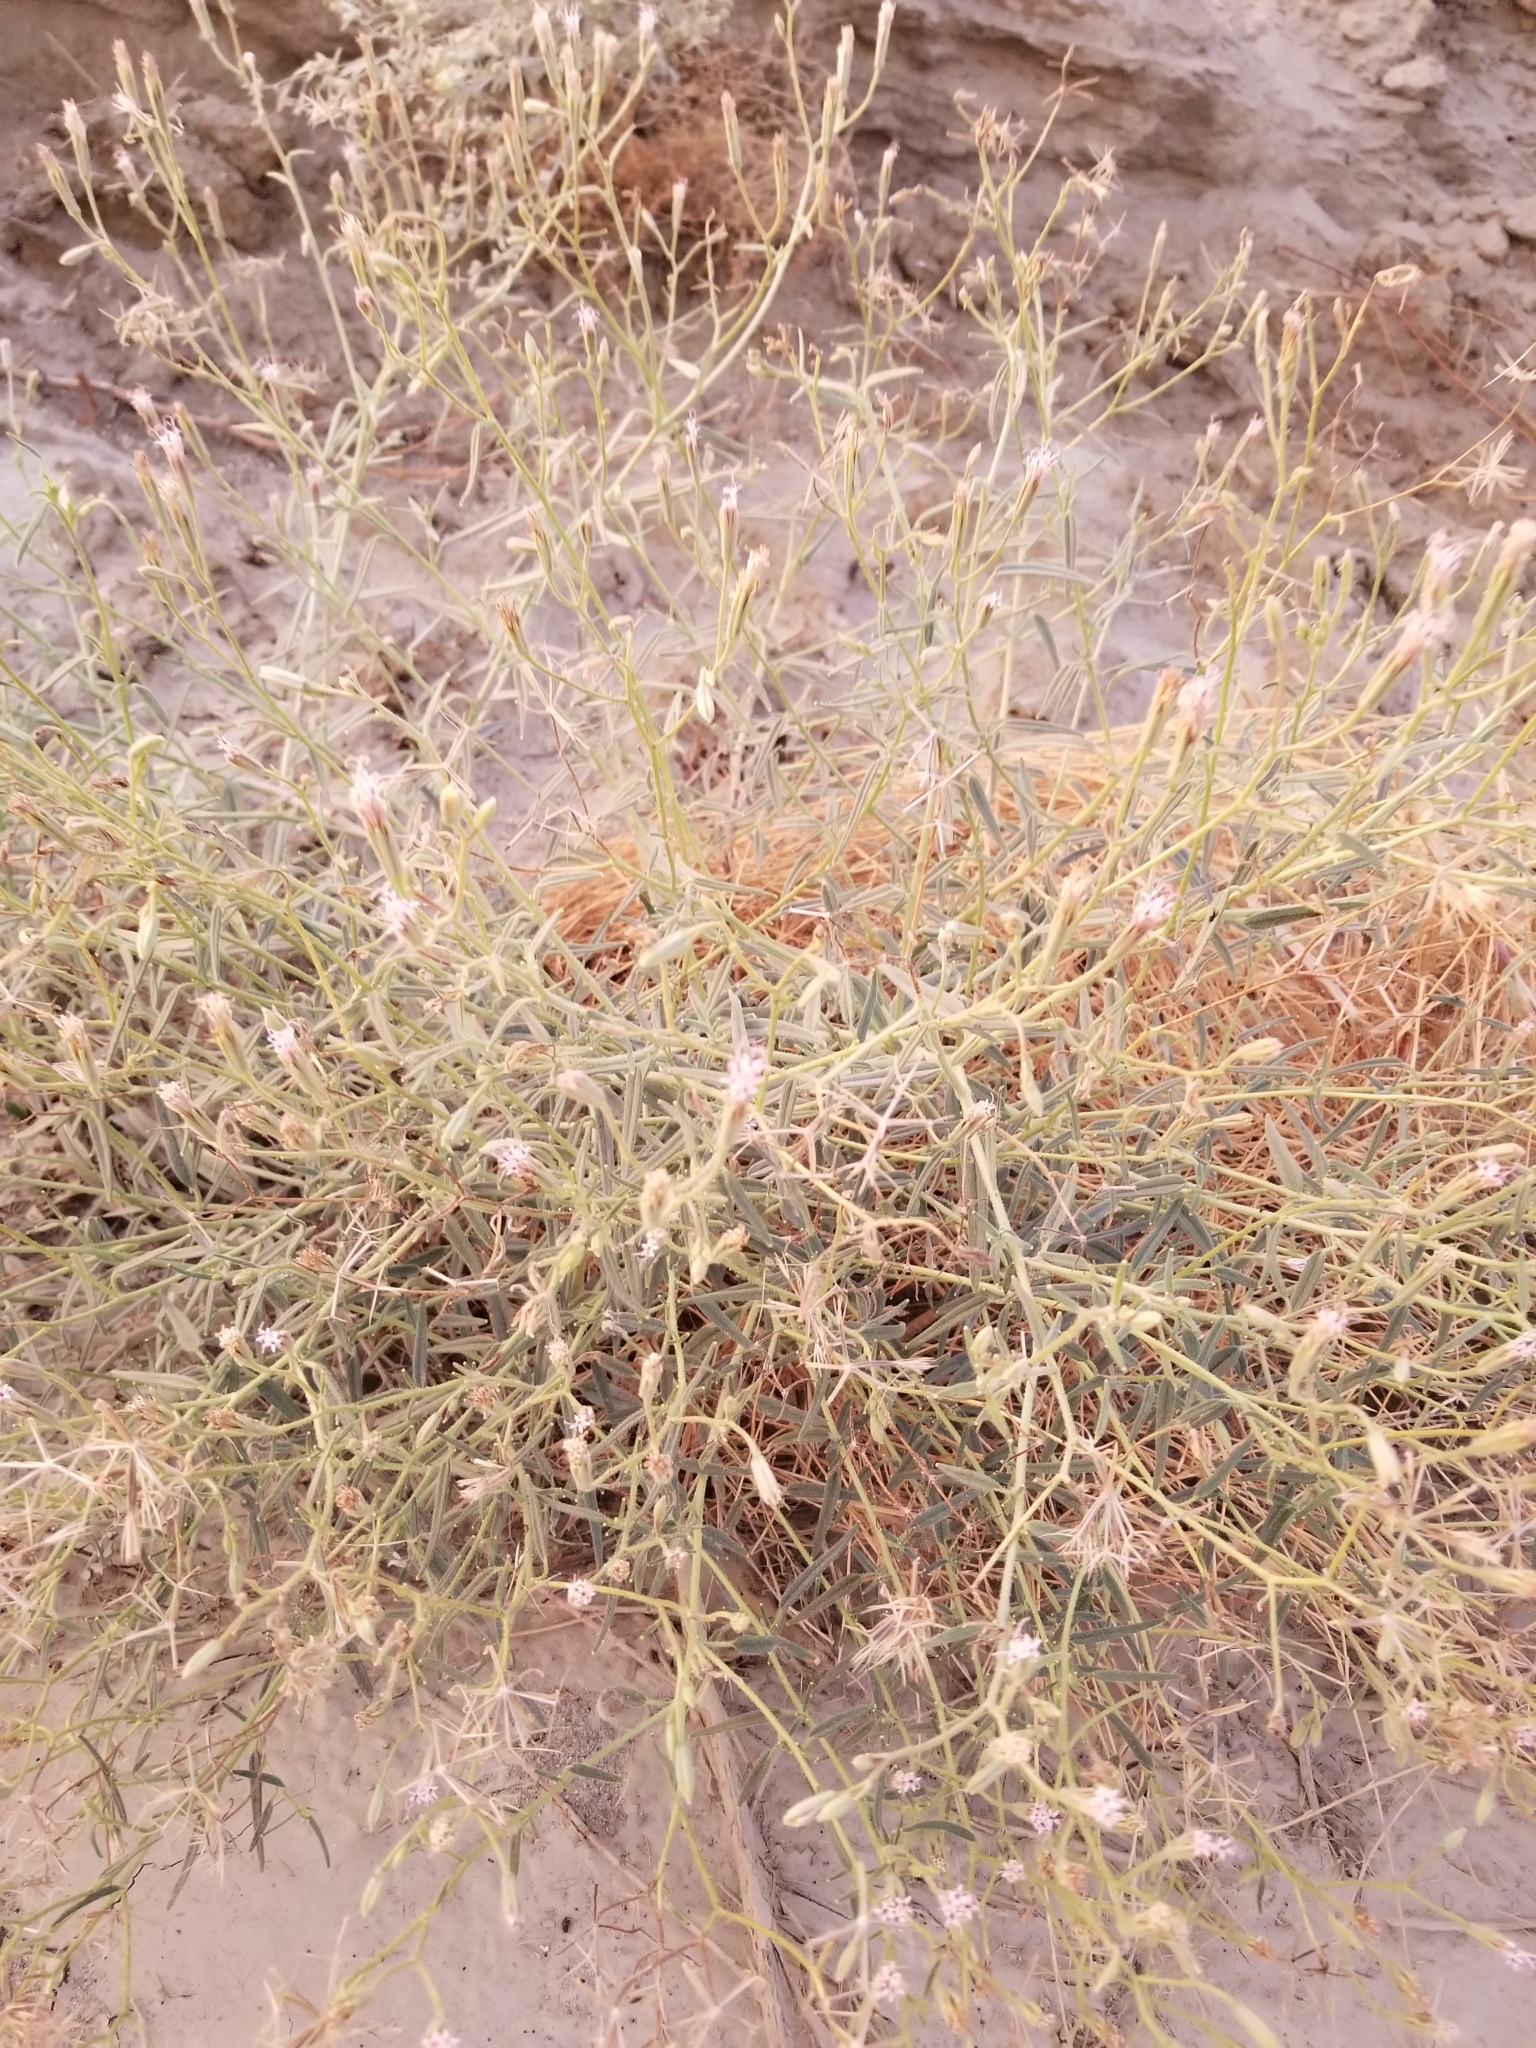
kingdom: Plantae
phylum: Tracheophyta
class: Magnoliopsida
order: Asterales
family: Asteraceae
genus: Palafoxia
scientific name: Palafoxia arida
